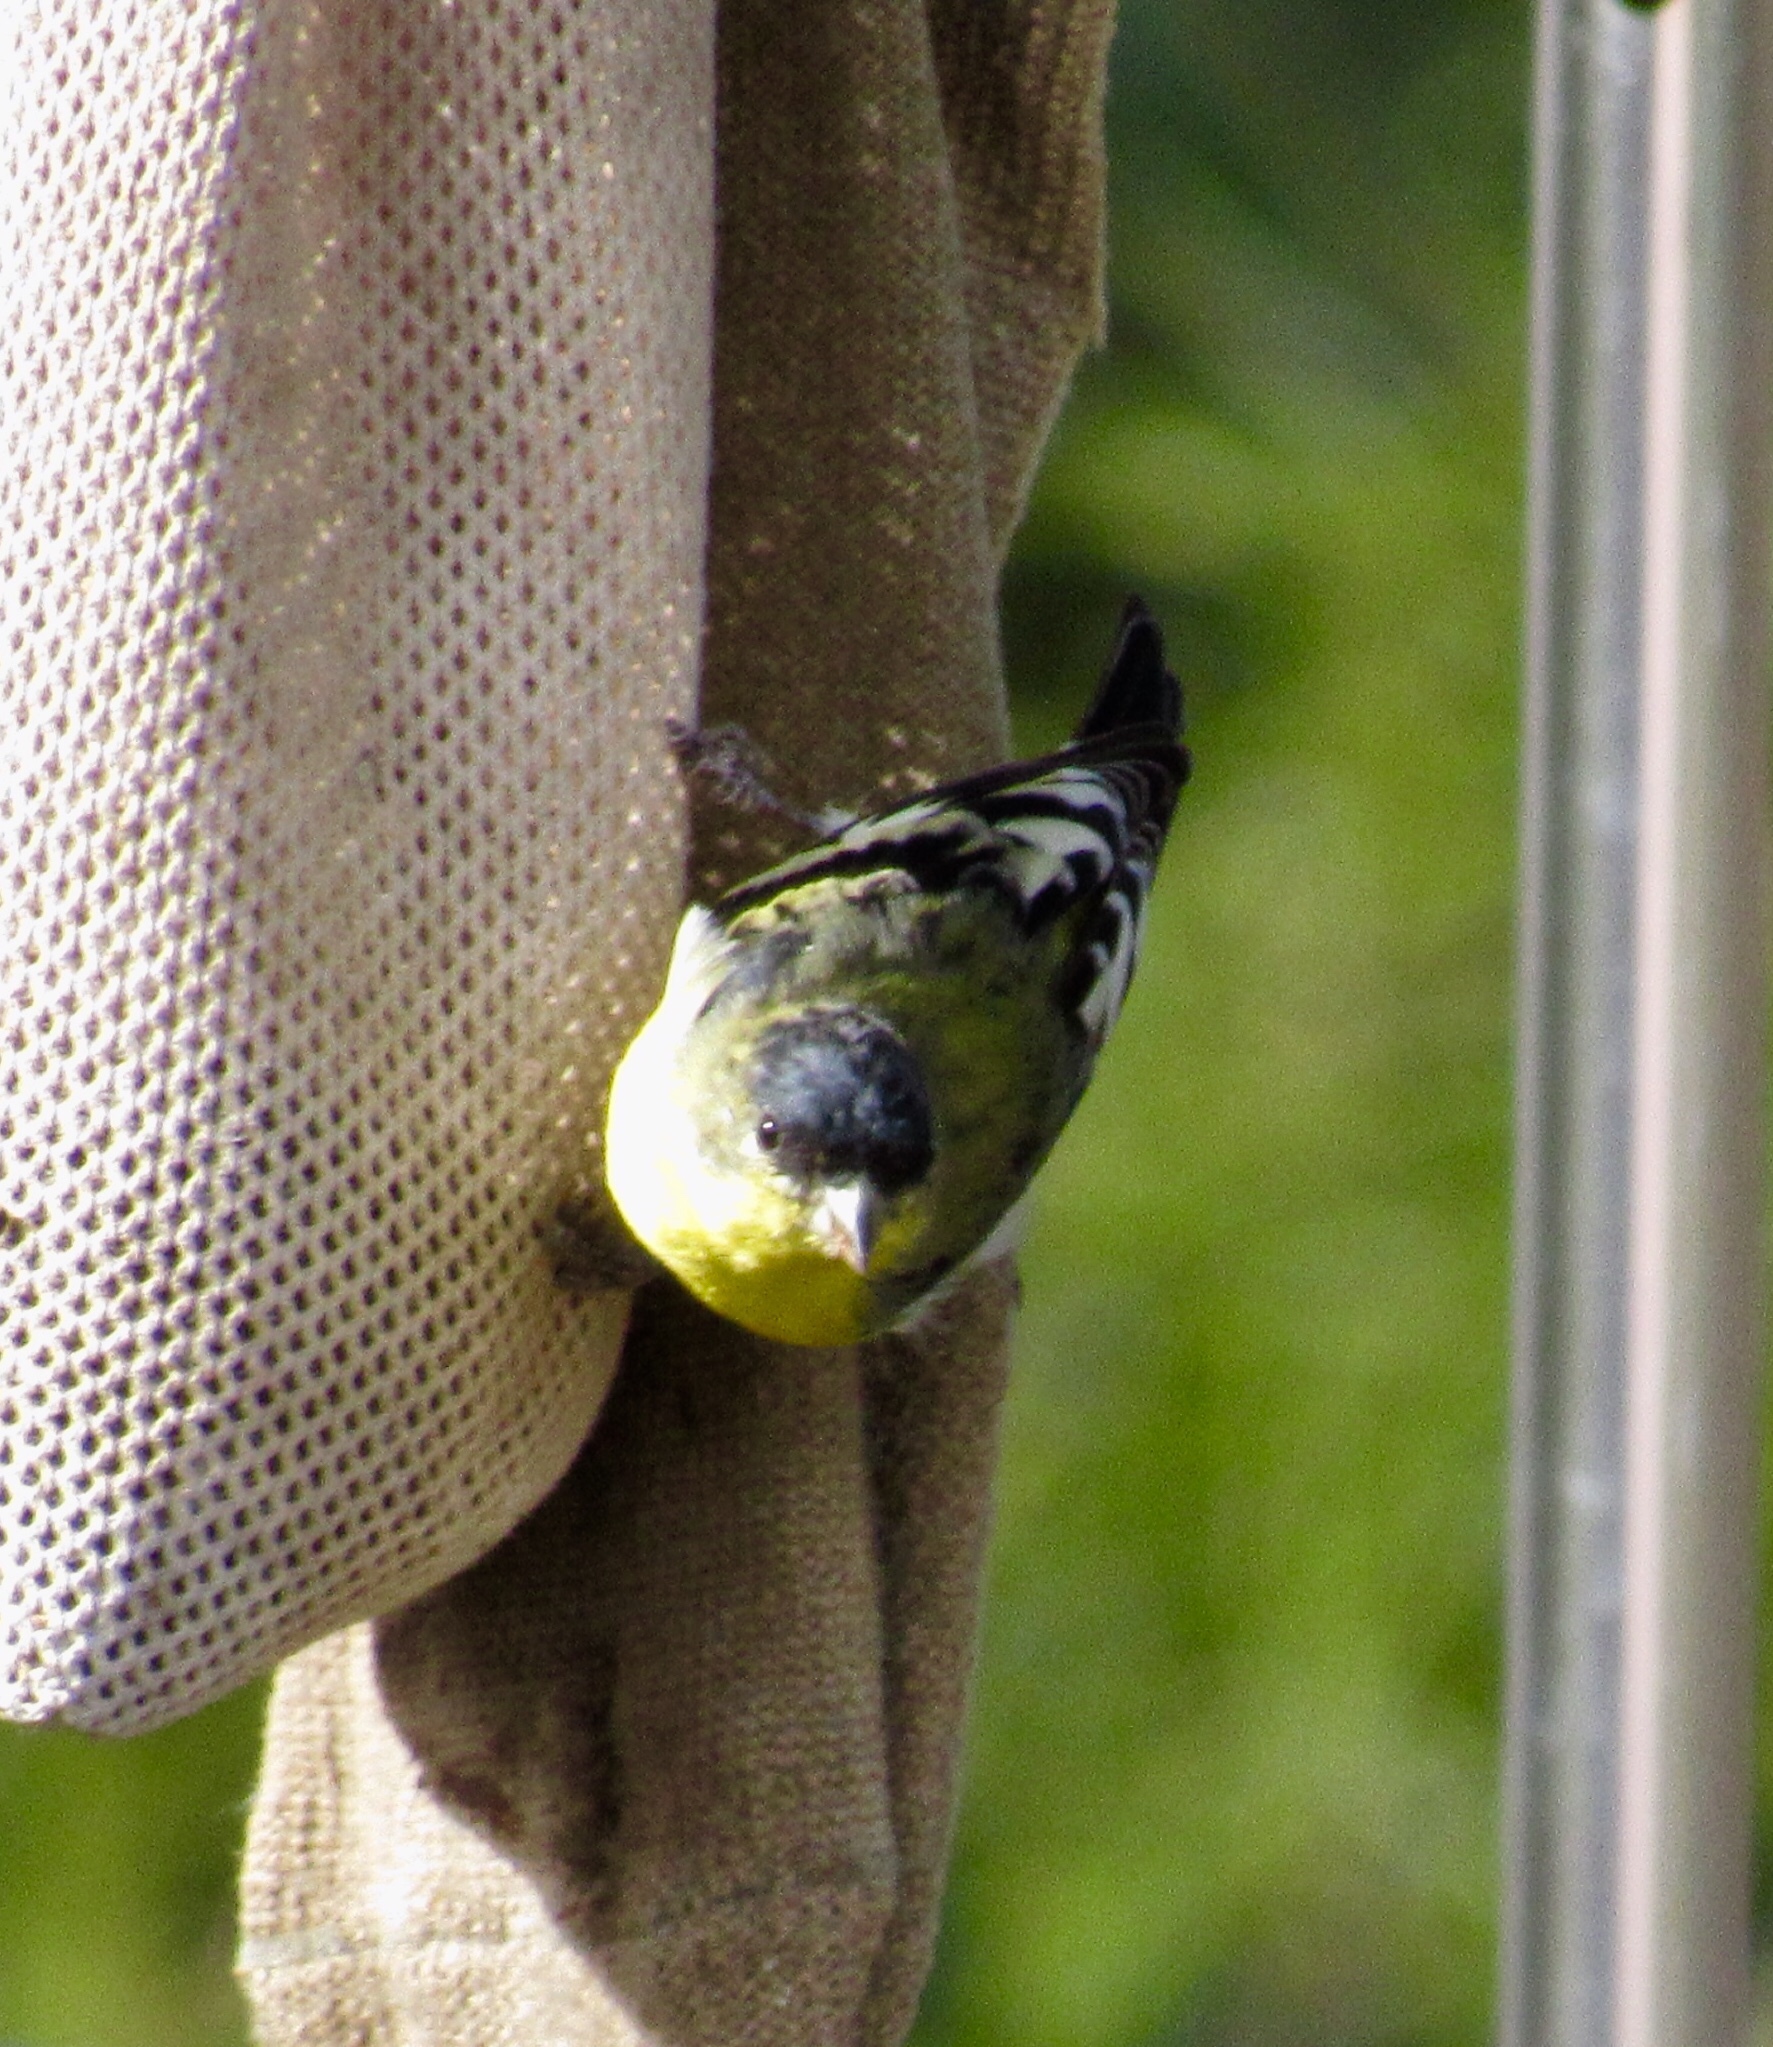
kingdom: Animalia
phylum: Chordata
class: Aves
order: Passeriformes
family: Fringillidae
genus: Spinus
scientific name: Spinus psaltria
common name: Lesser goldfinch
